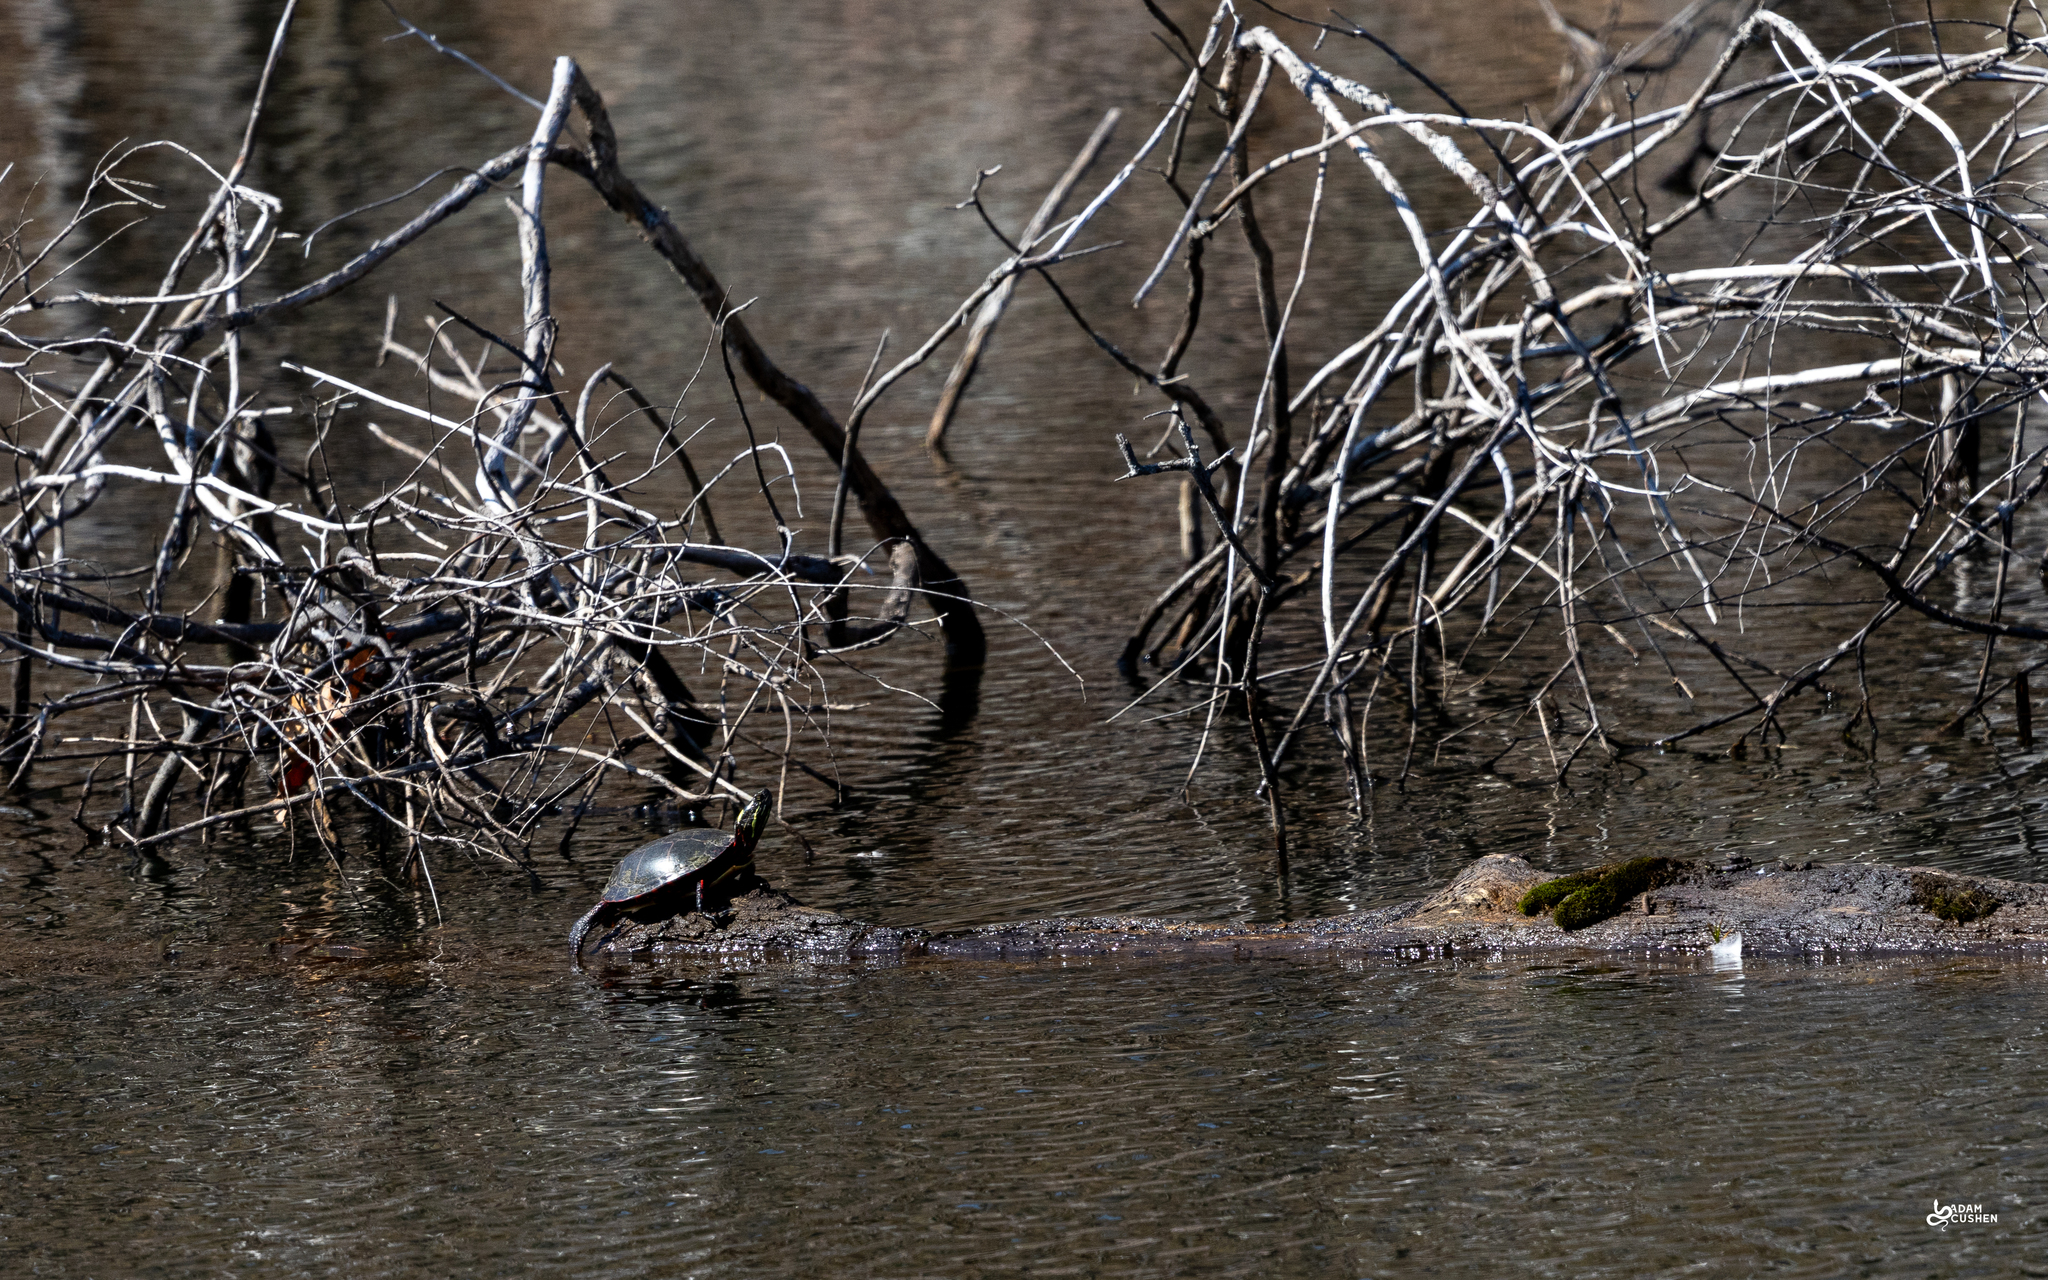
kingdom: Animalia
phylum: Chordata
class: Testudines
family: Emydidae
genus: Chrysemys
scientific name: Chrysemys picta
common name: Painted turtle
